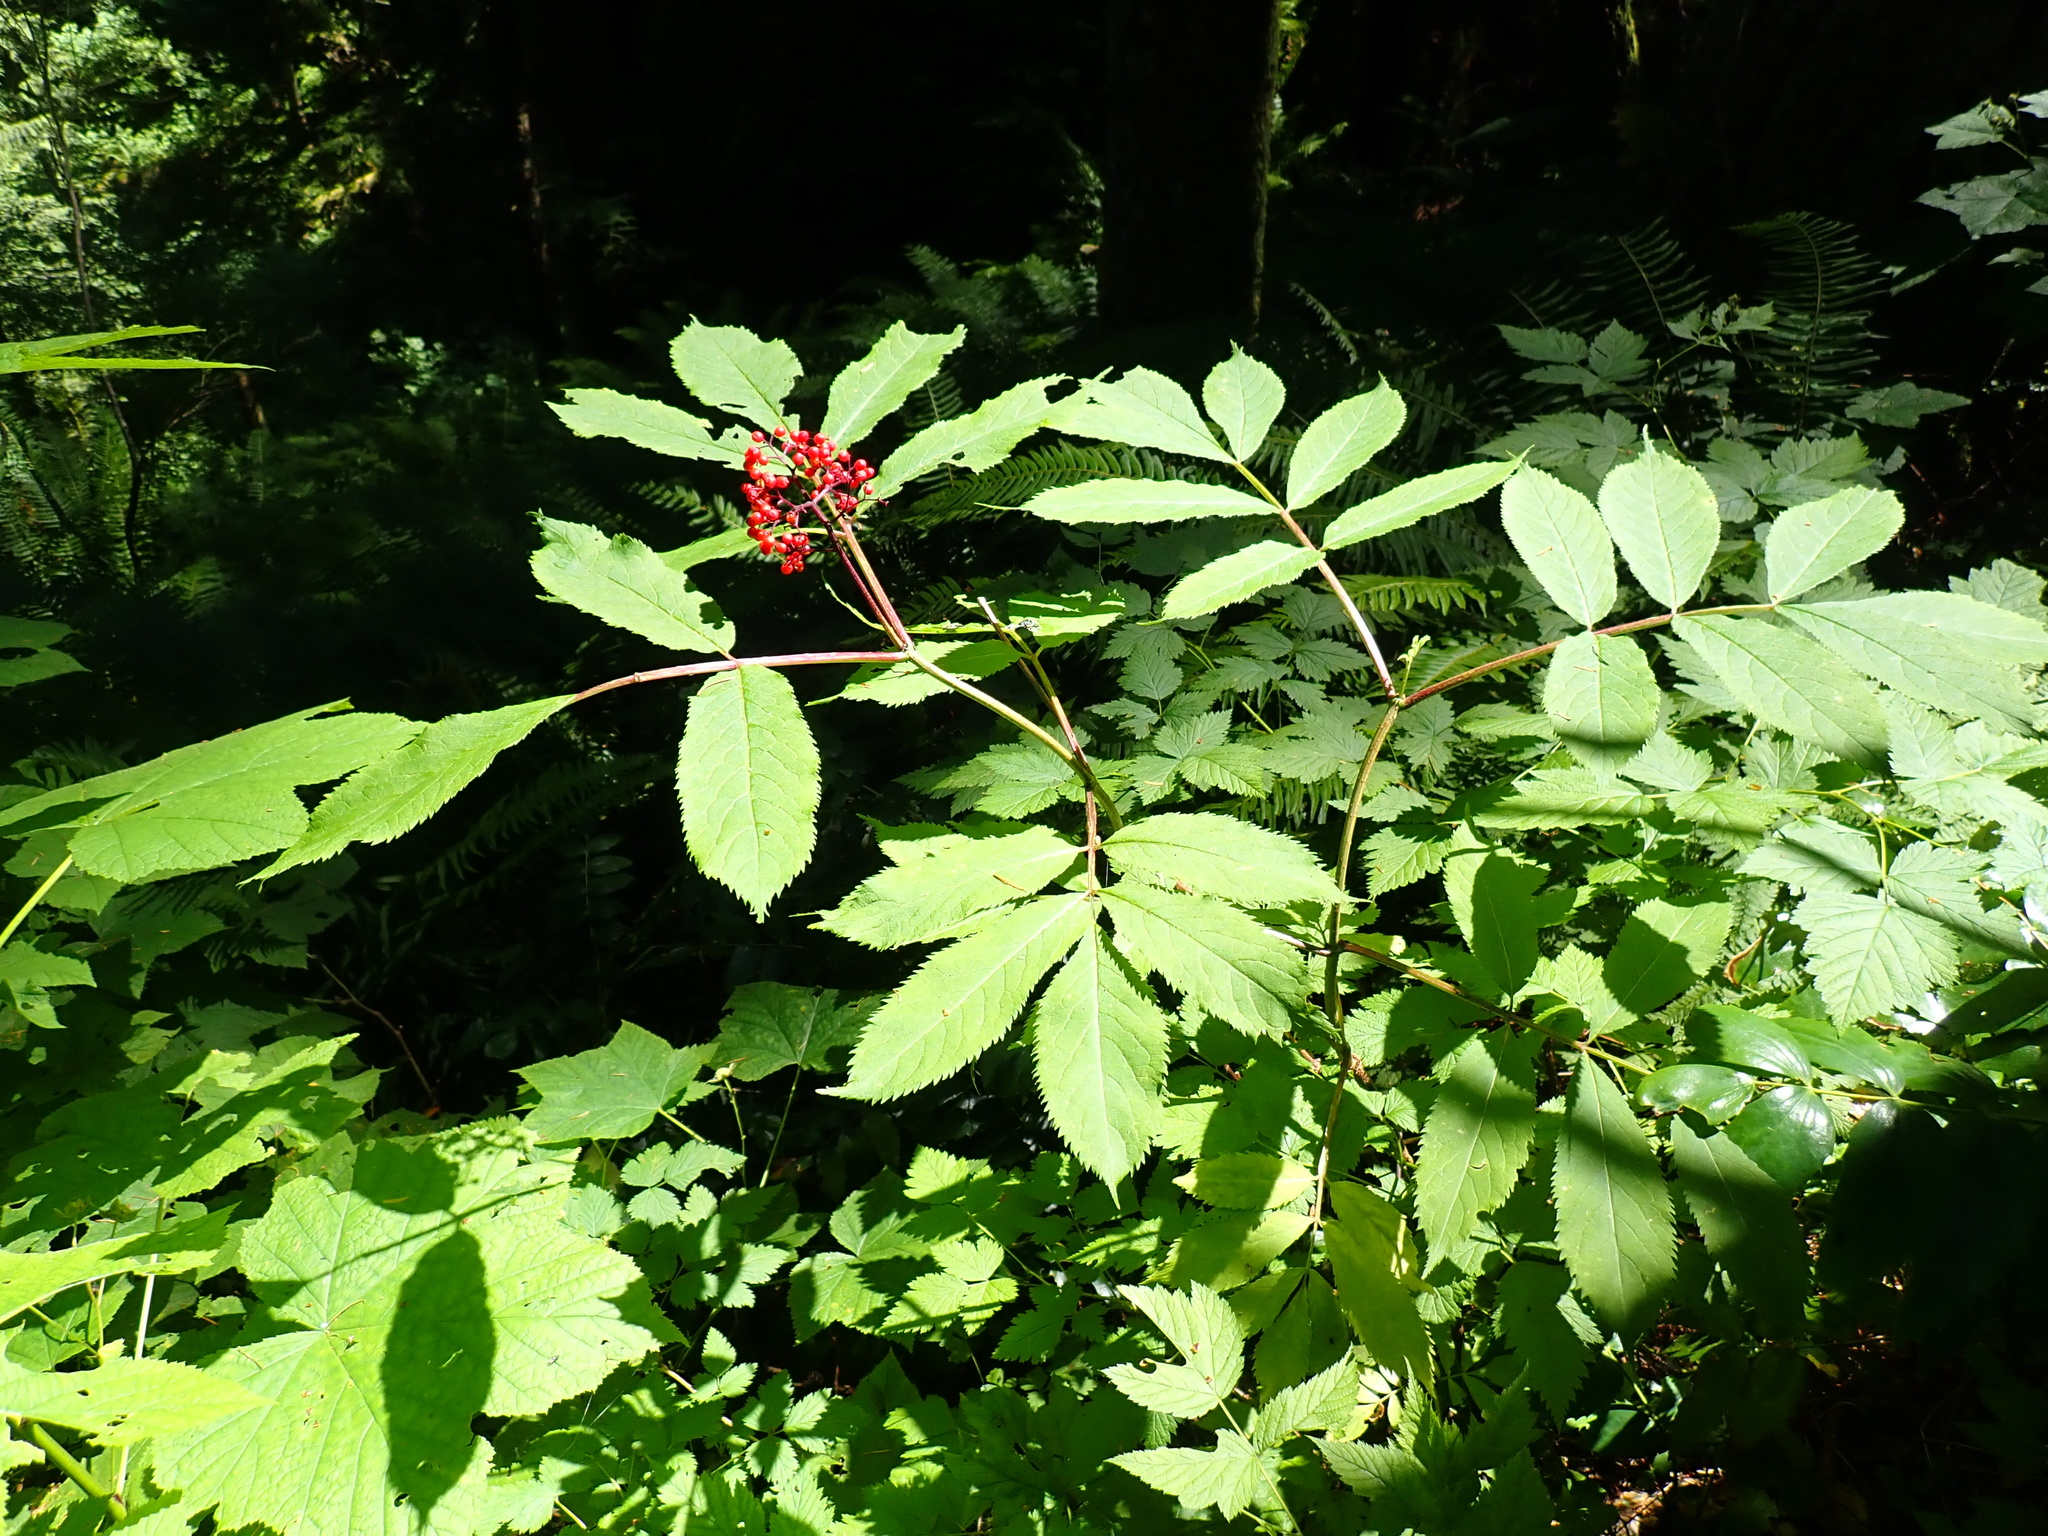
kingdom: Plantae
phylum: Tracheophyta
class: Magnoliopsida
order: Dipsacales
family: Viburnaceae
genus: Sambucus
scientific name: Sambucus racemosa
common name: Red-berried elder
